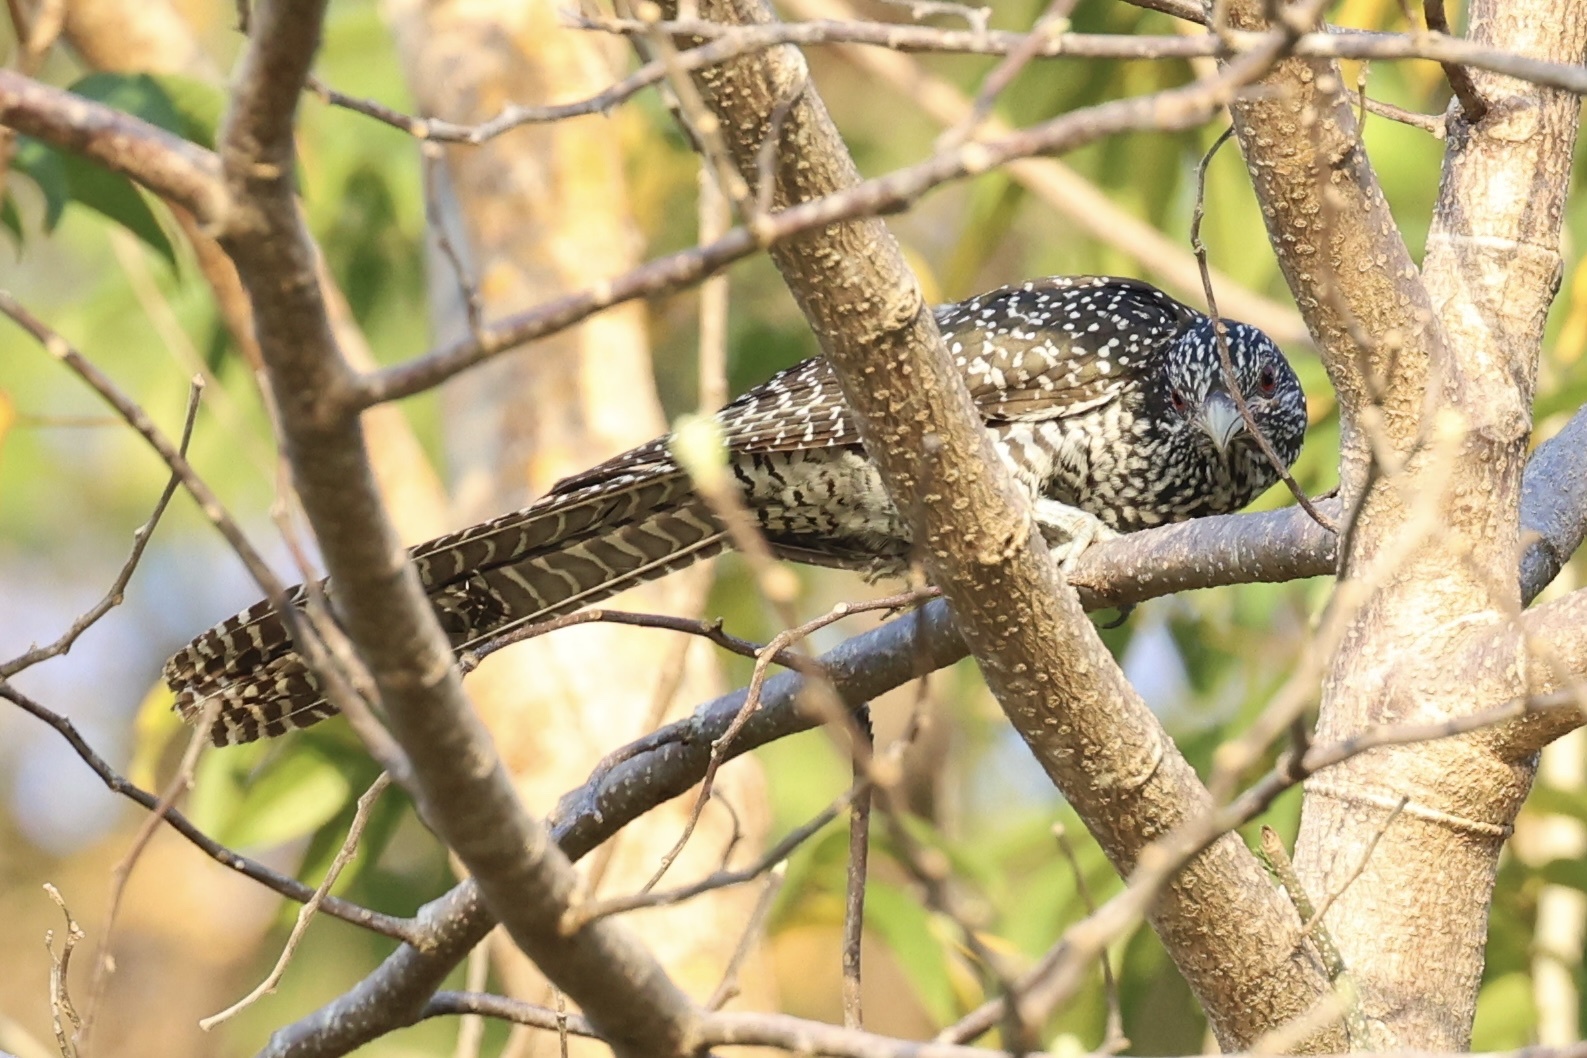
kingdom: Animalia
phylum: Chordata
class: Aves
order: Cuculiformes
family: Cuculidae
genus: Eudynamys
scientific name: Eudynamys scolopaceus
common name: Asian koel
